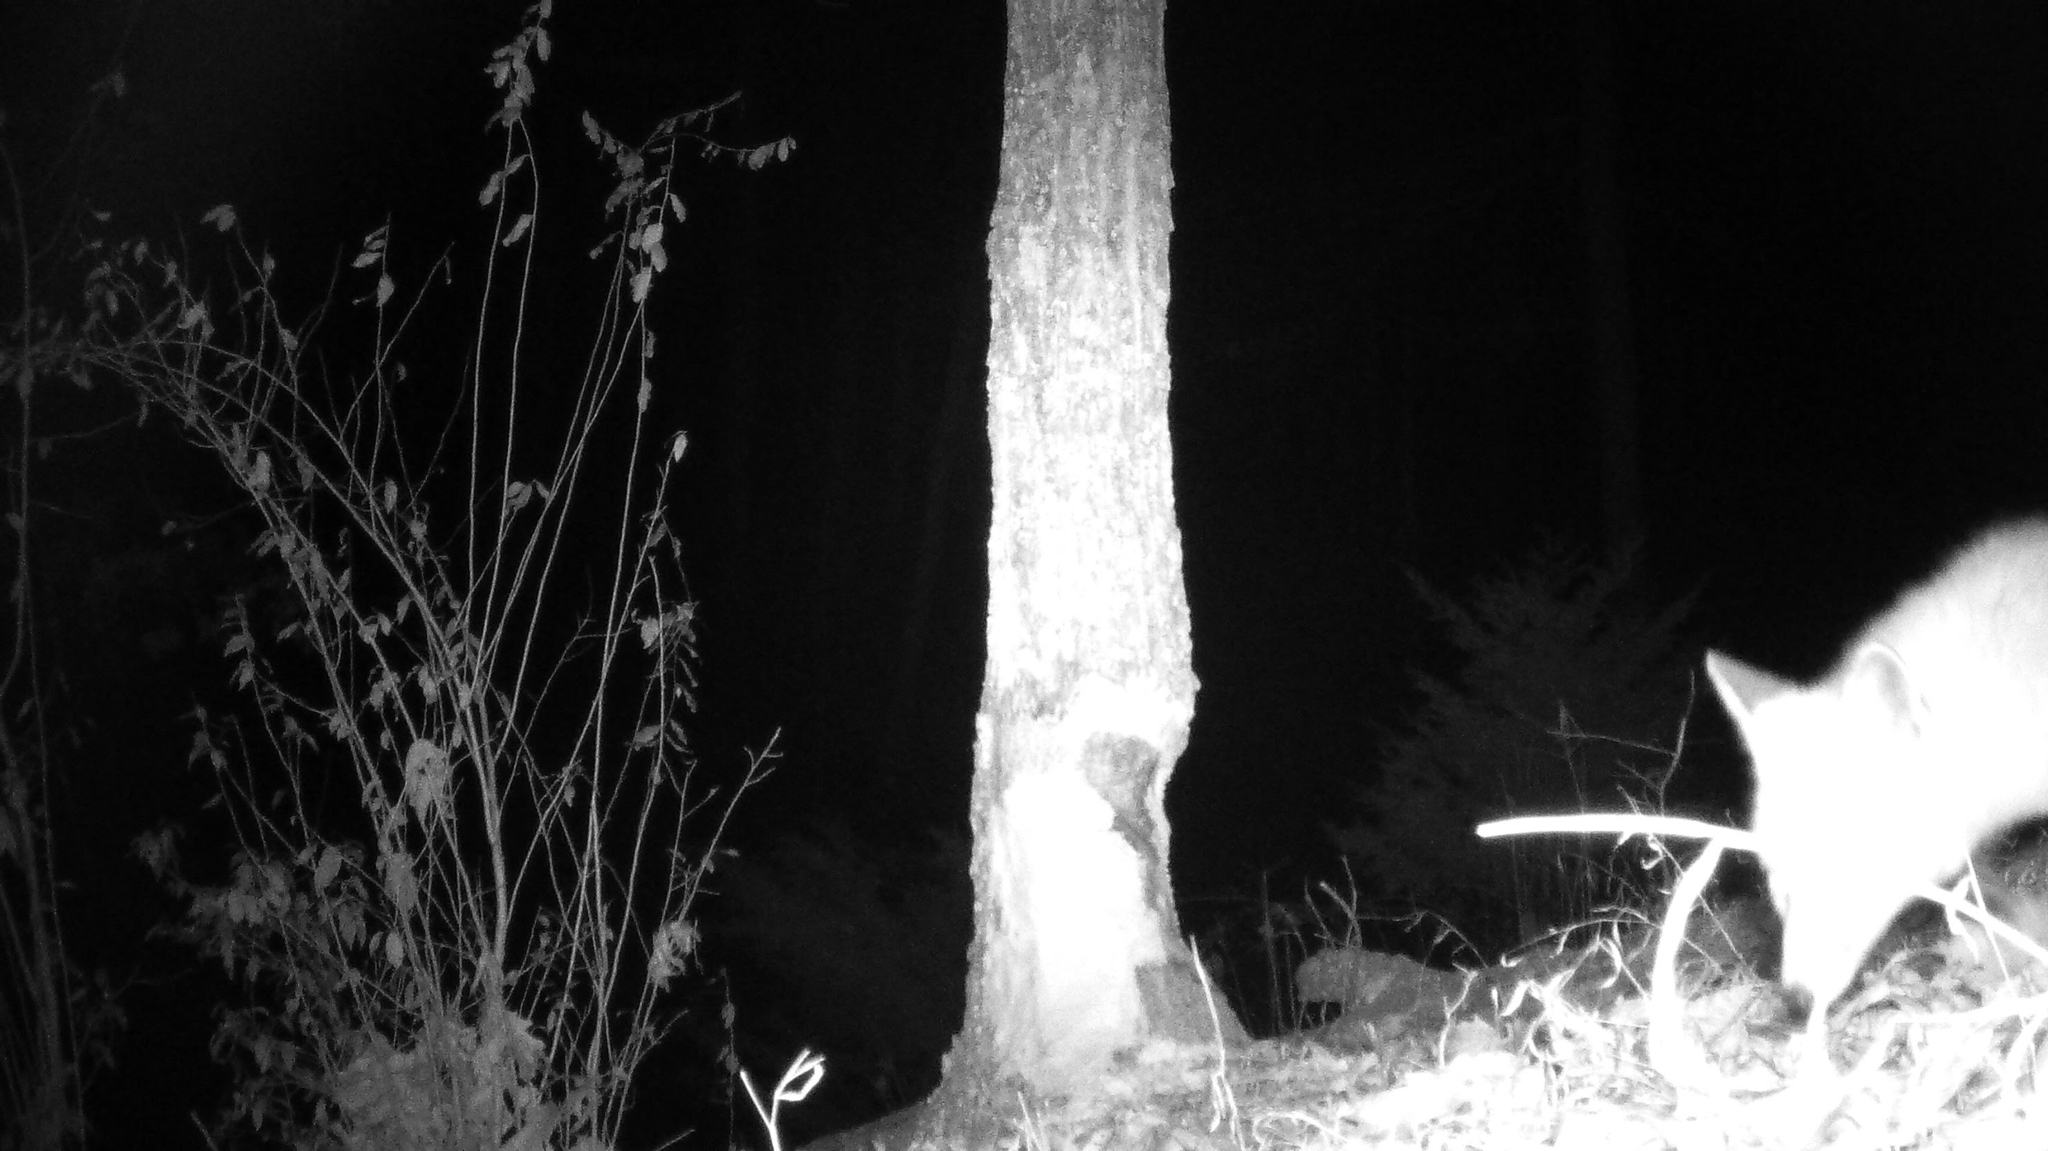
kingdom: Animalia
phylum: Chordata
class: Mammalia
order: Carnivora
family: Canidae
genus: Vulpes
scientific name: Vulpes vulpes
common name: Red fox
